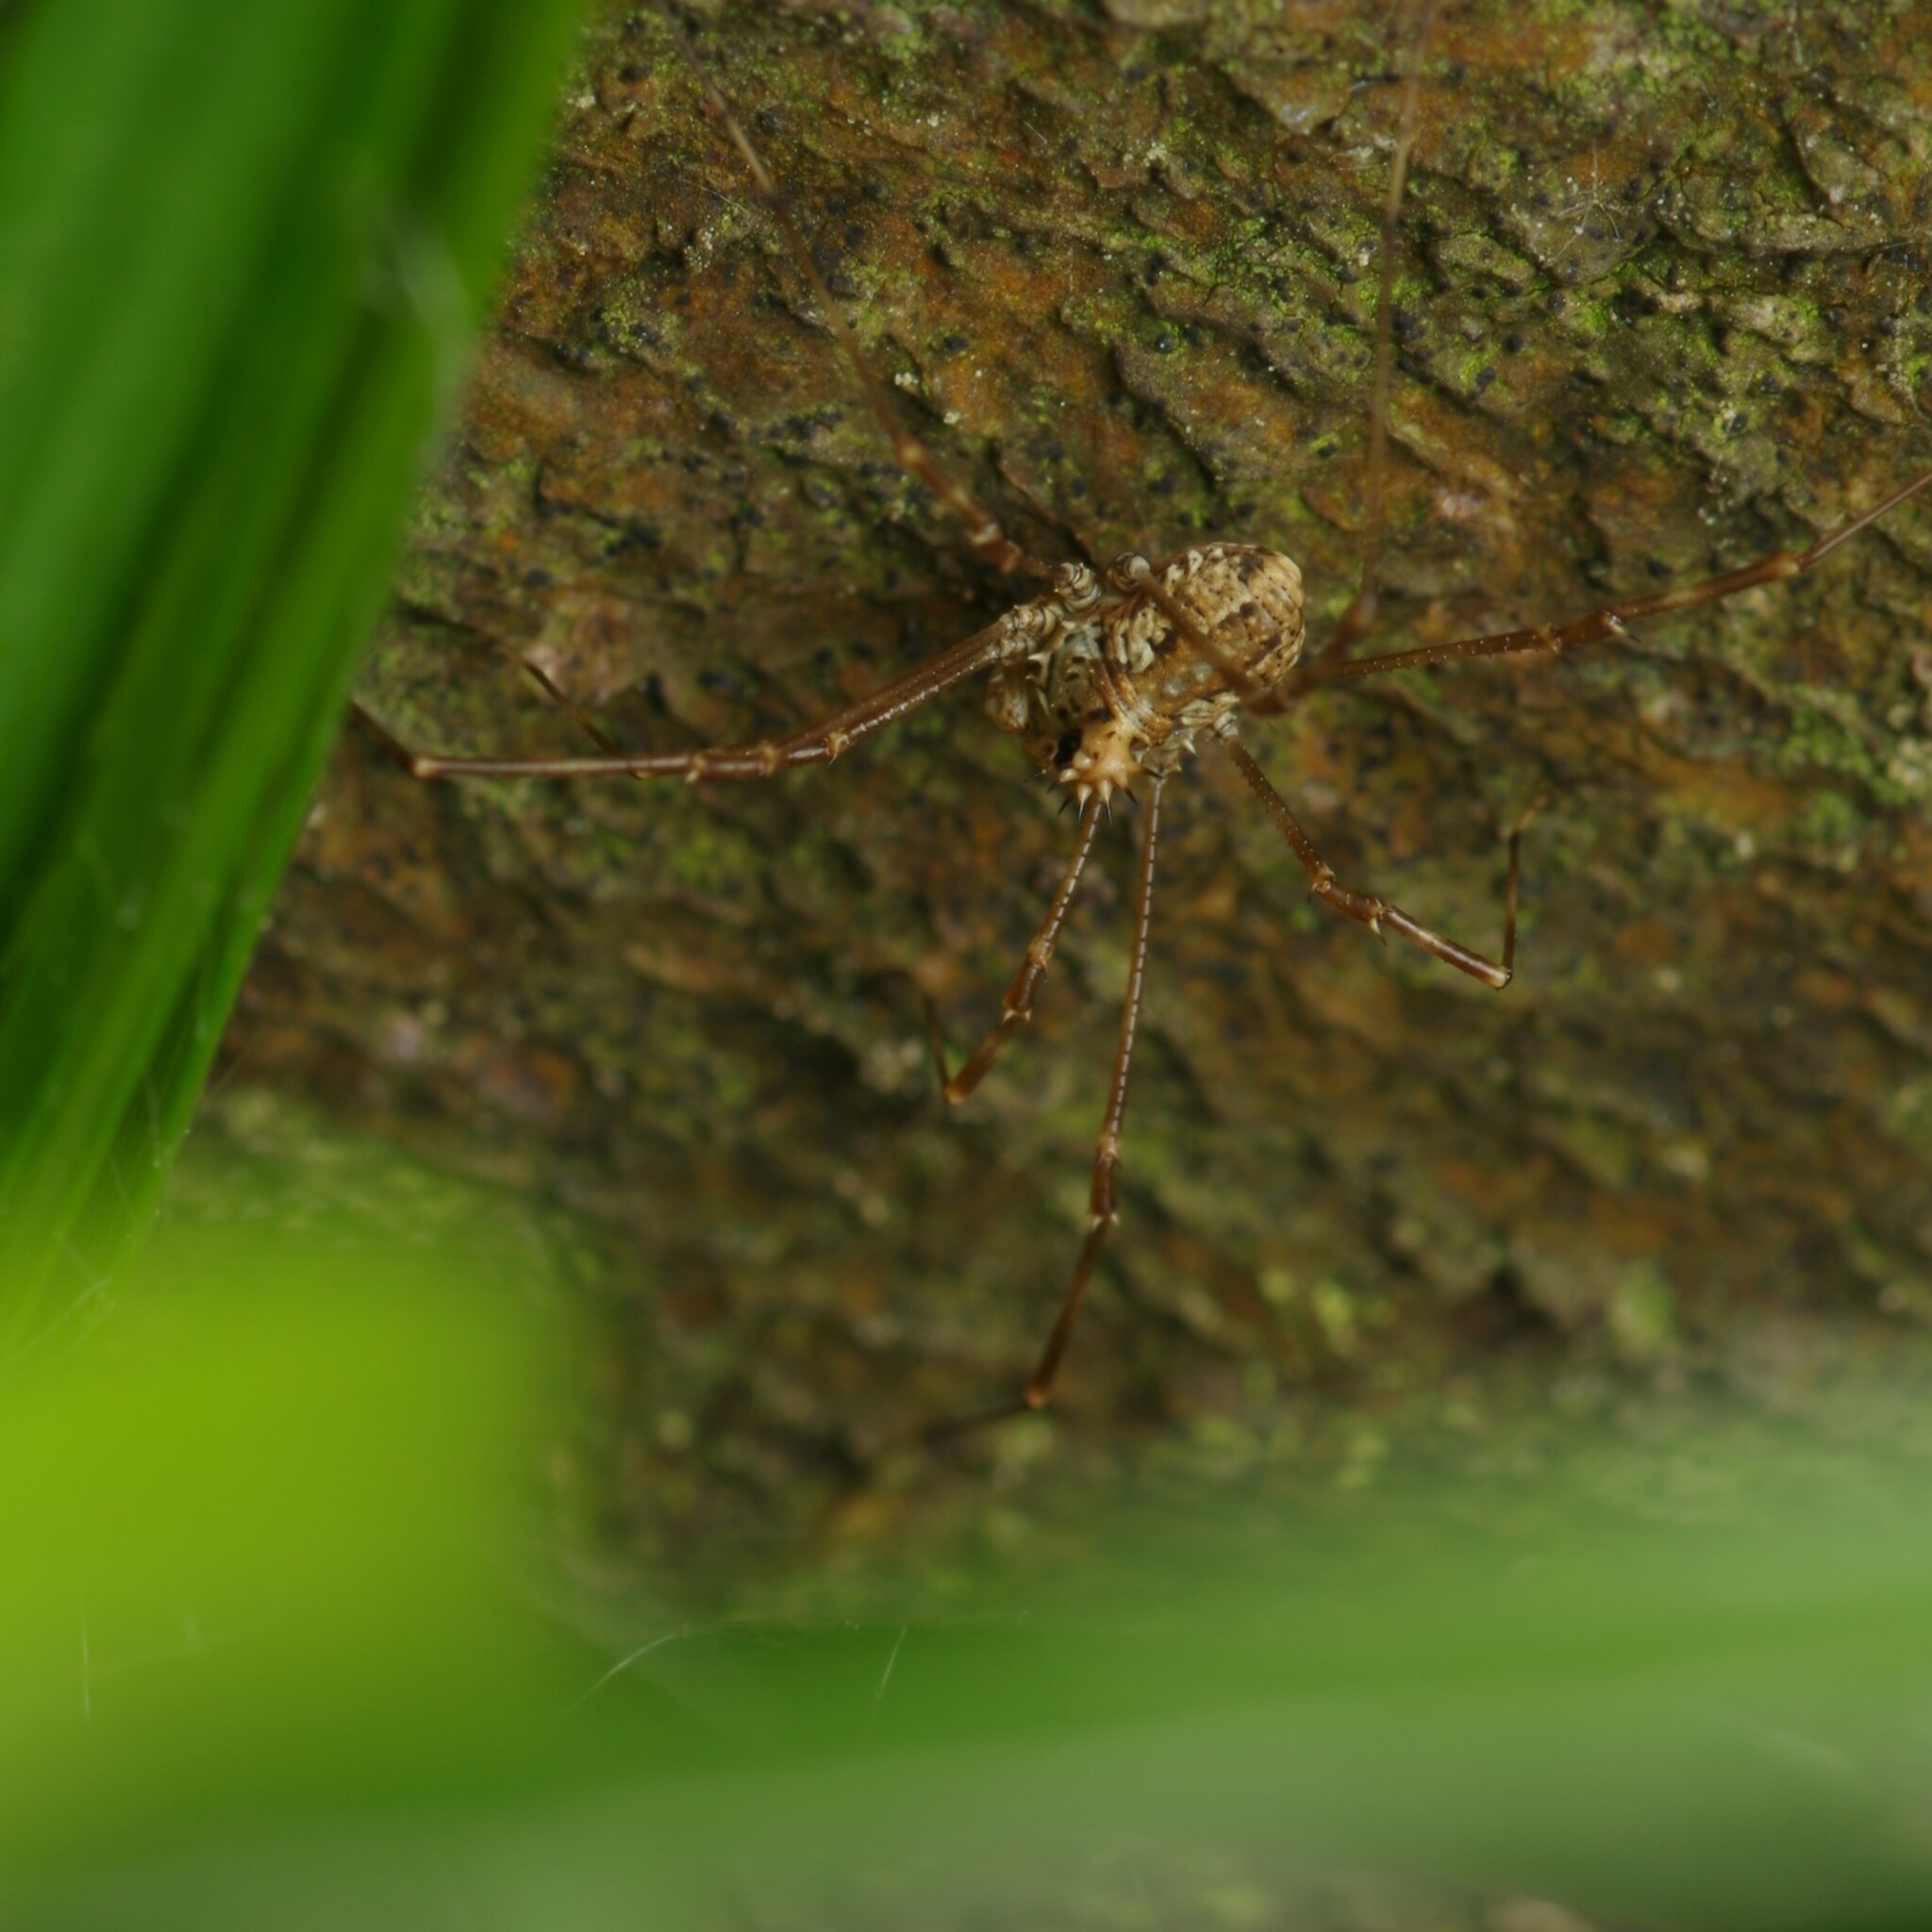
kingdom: Animalia
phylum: Arthropoda
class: Arachnida
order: Opiliones
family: Phalangiidae
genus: Megabunus
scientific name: Megabunus diadema
